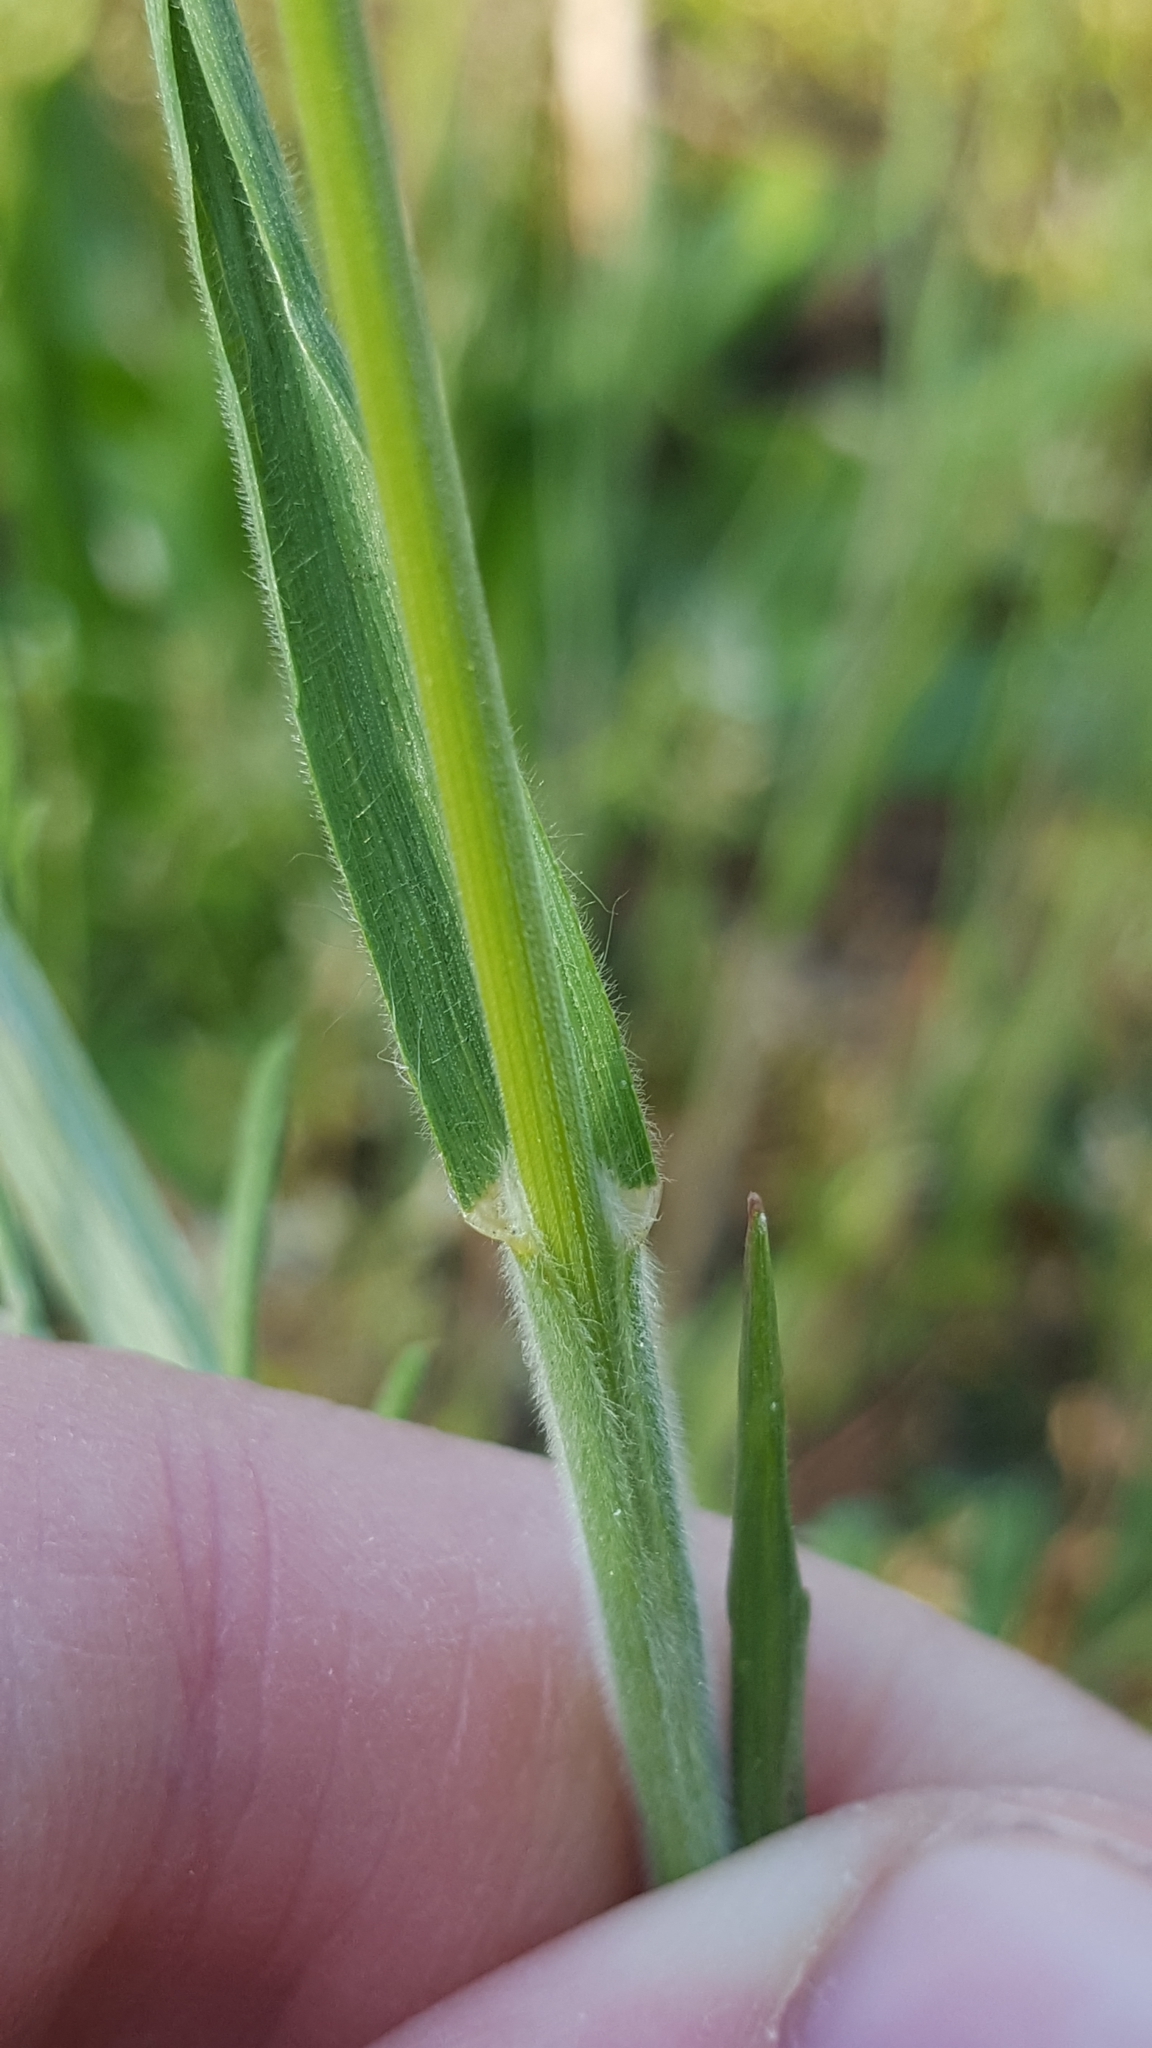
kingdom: Plantae
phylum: Tracheophyta
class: Liliopsida
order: Poales
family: Poaceae
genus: Bromus
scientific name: Bromus hordeaceus
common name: Soft brome
